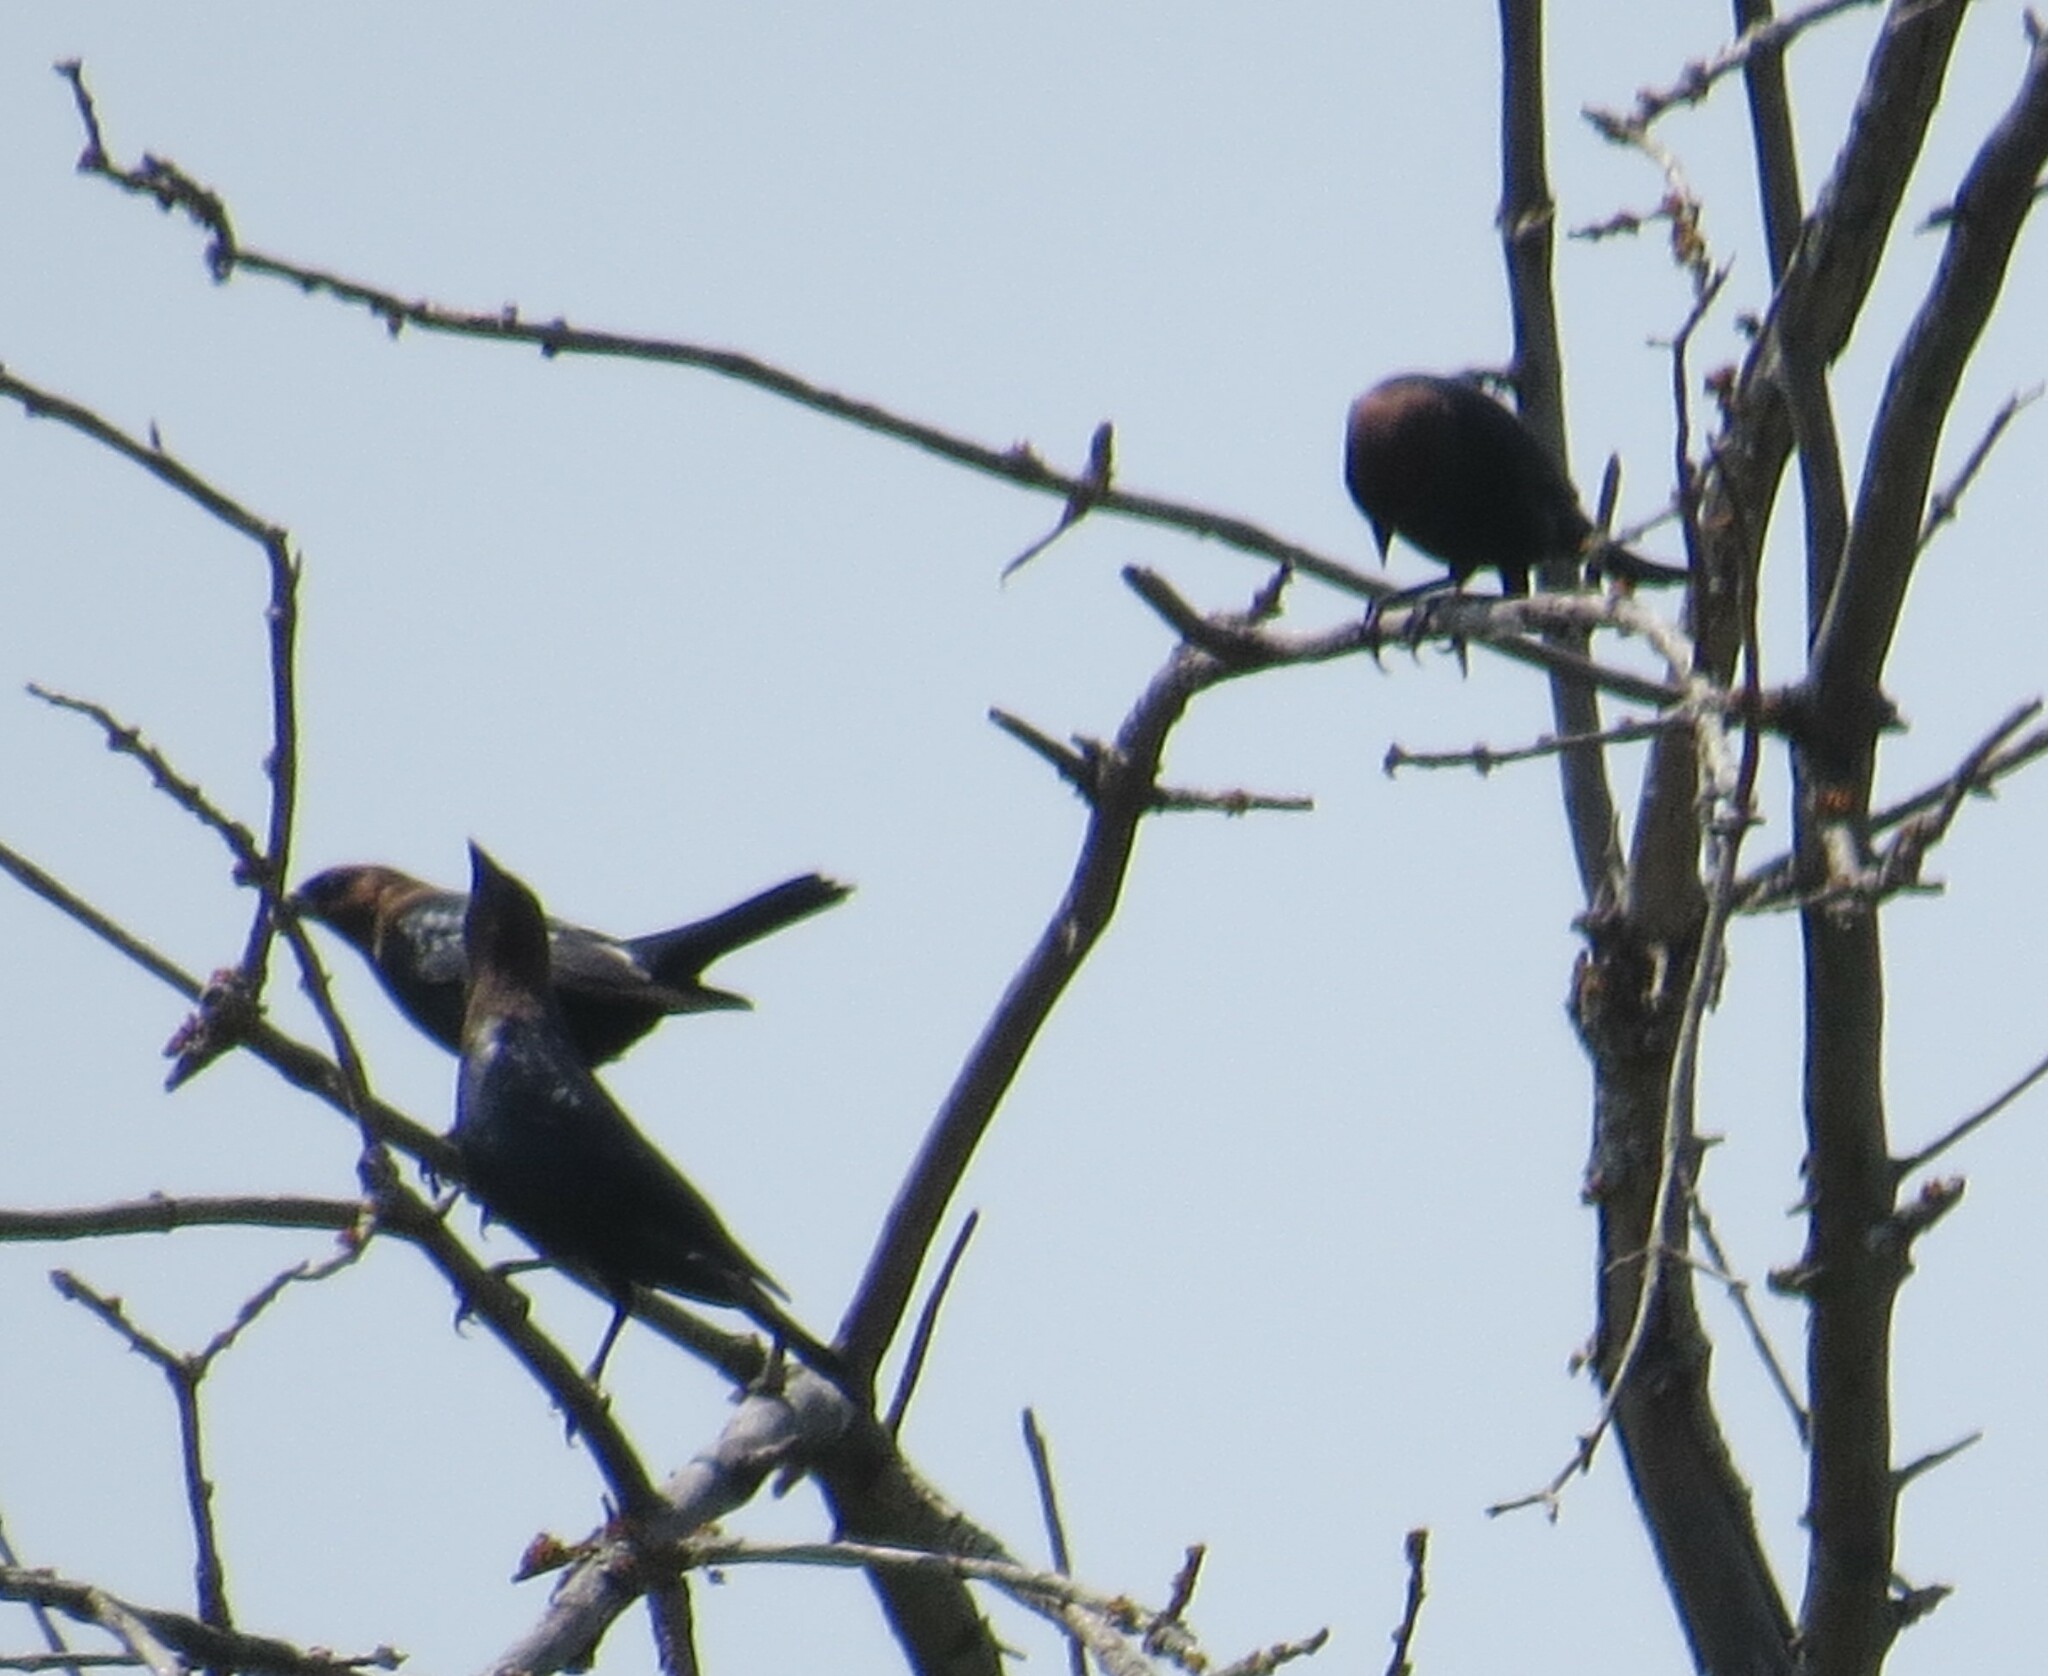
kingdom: Animalia
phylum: Chordata
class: Aves
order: Passeriformes
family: Icteridae
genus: Molothrus
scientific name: Molothrus ater
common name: Brown-headed cowbird
